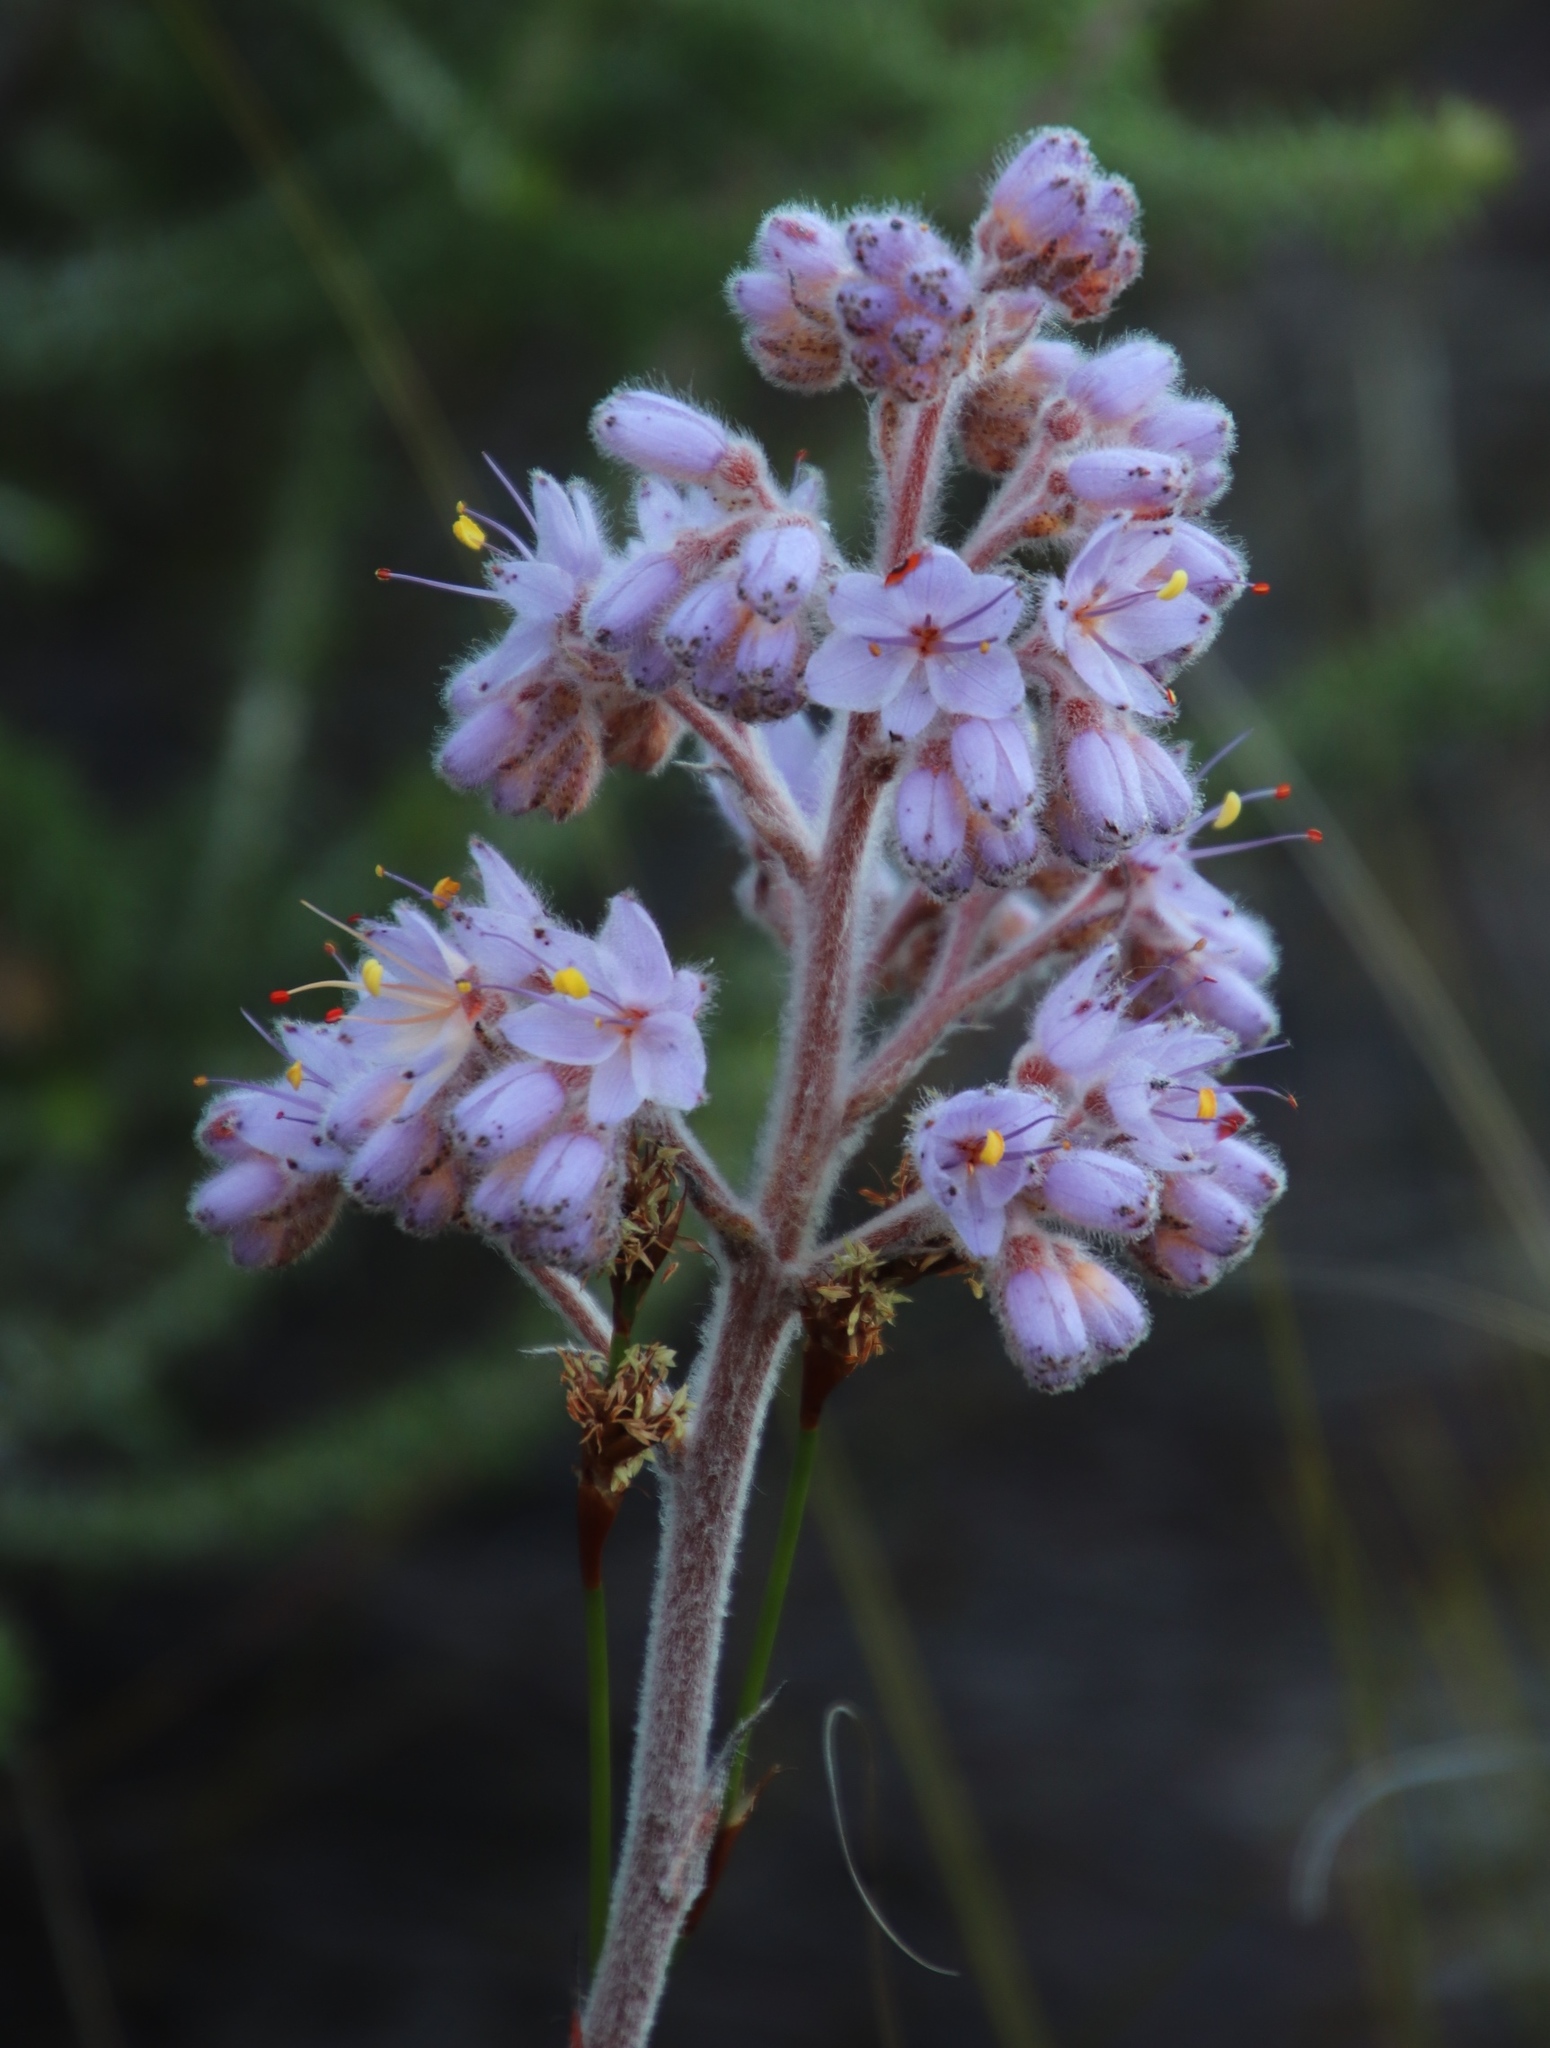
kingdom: Plantae
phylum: Tracheophyta
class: Liliopsida
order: Commelinales
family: Haemodoraceae
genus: Dilatris
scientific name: Dilatris ixioides
